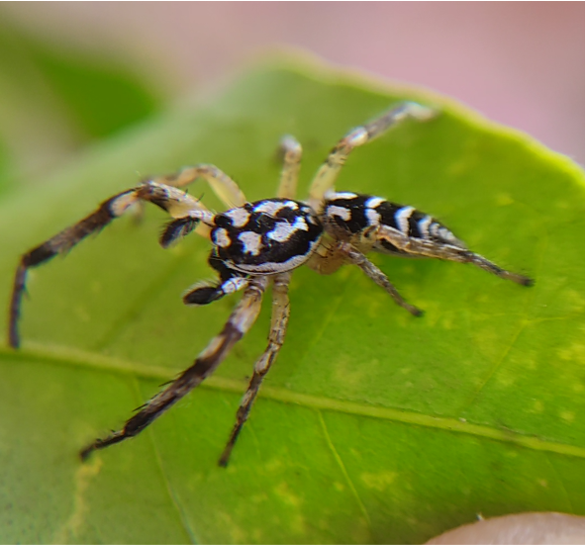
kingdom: Animalia
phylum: Arthropoda
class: Arachnida
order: Araneae
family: Salticidae
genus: Psecas
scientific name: Psecas chapoda
